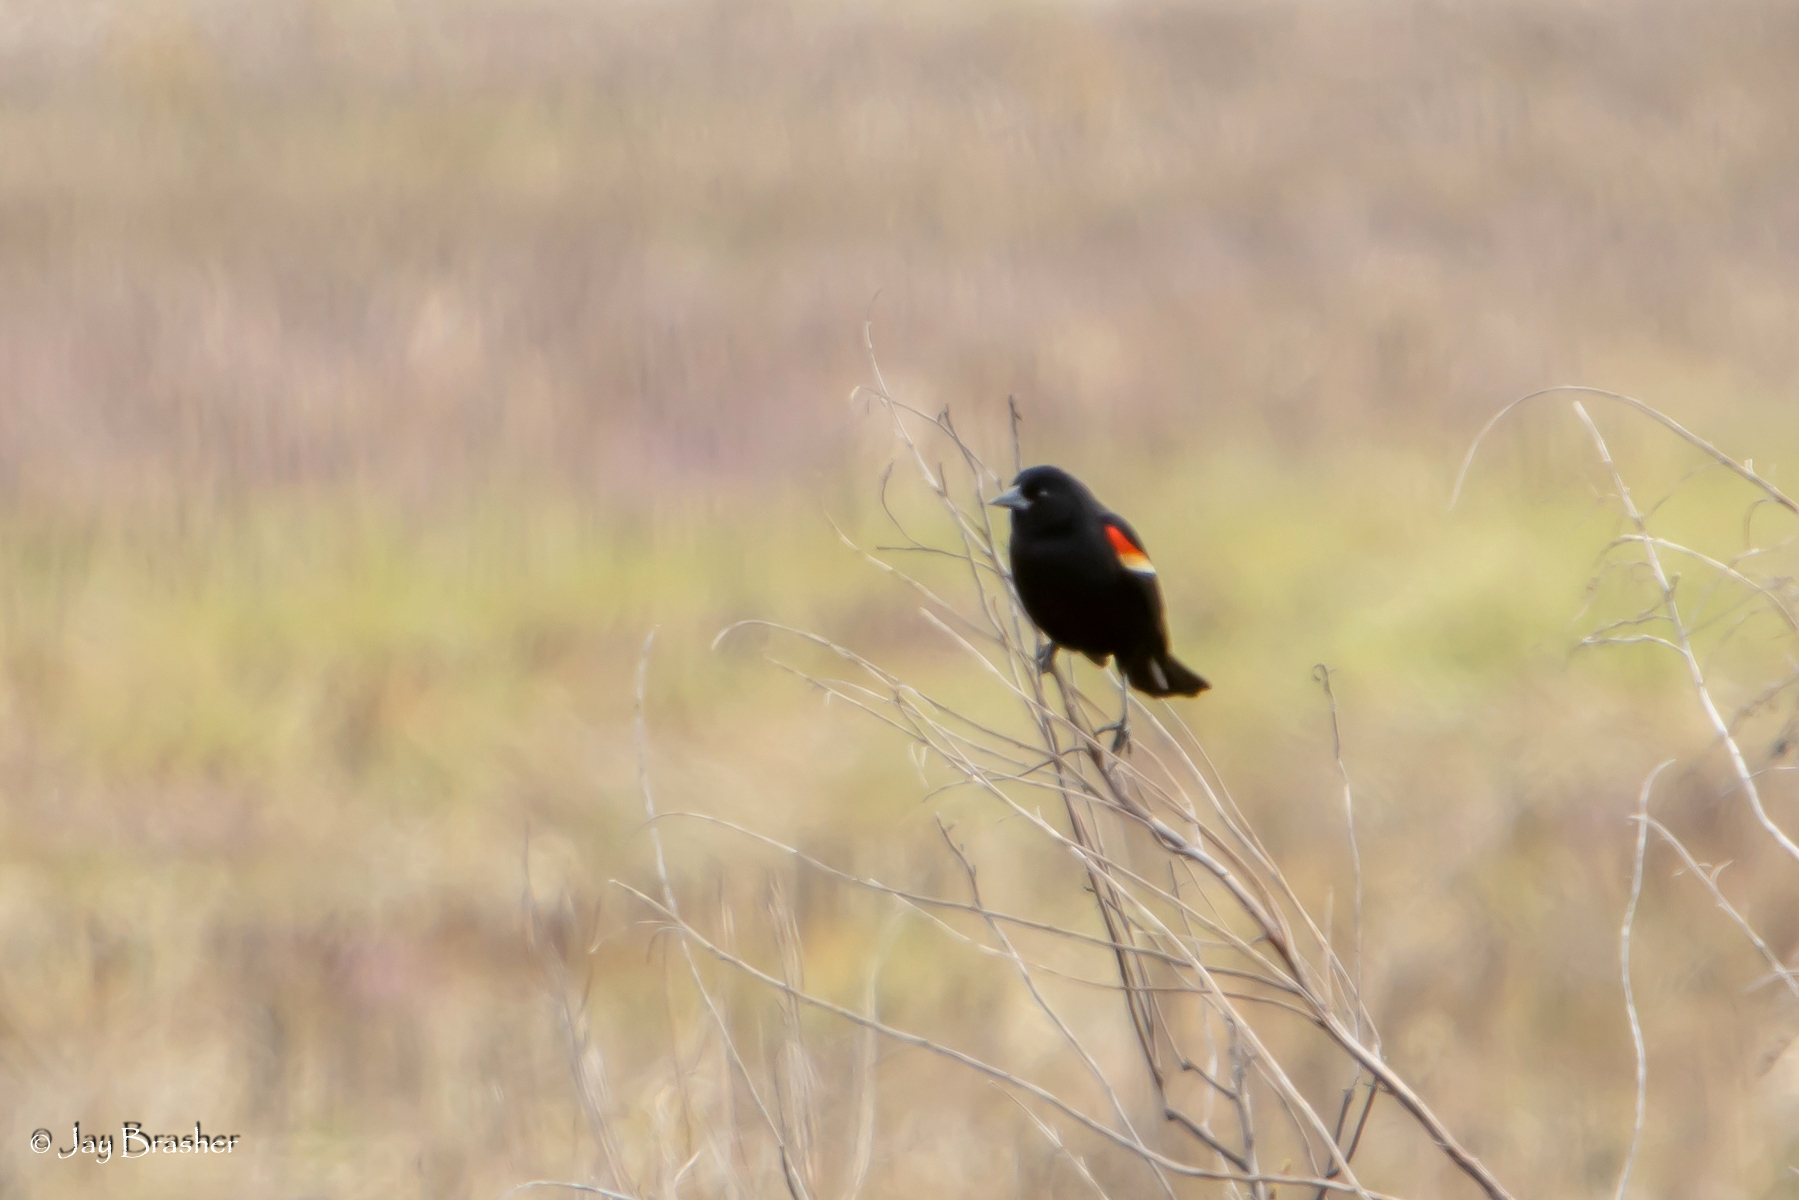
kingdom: Animalia
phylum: Chordata
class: Aves
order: Passeriformes
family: Icteridae
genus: Agelaius
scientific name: Agelaius phoeniceus
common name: Red-winged blackbird
